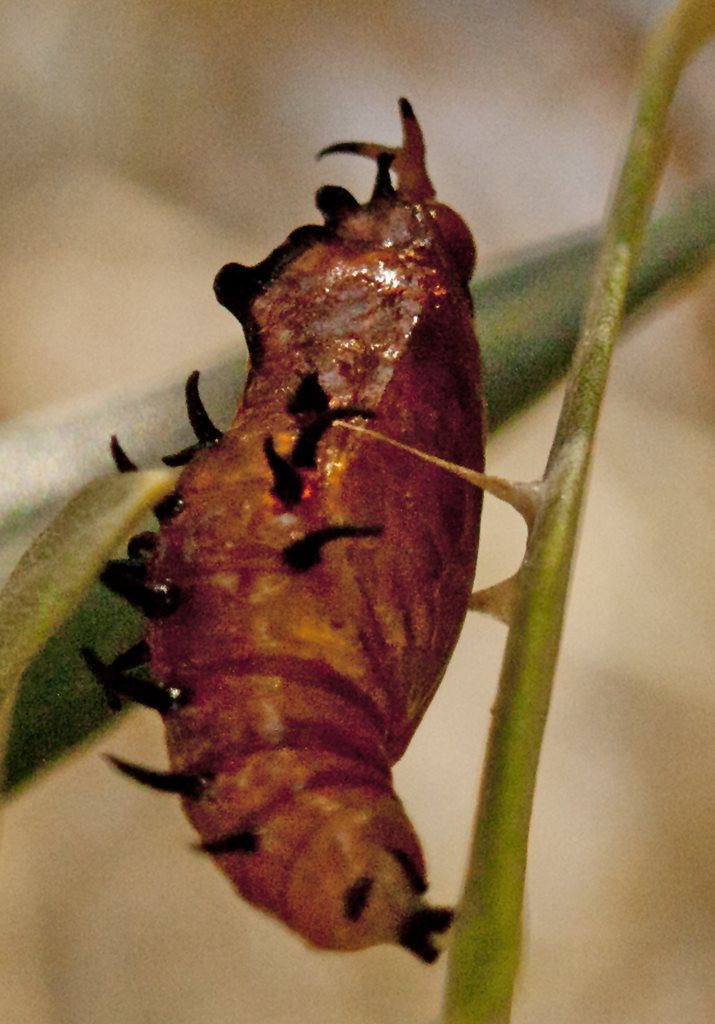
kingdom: Animalia
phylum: Arthropoda
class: Insecta
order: Lepidoptera
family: Pieridae
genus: Delias
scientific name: Delias nigrina
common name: Black jezebel
